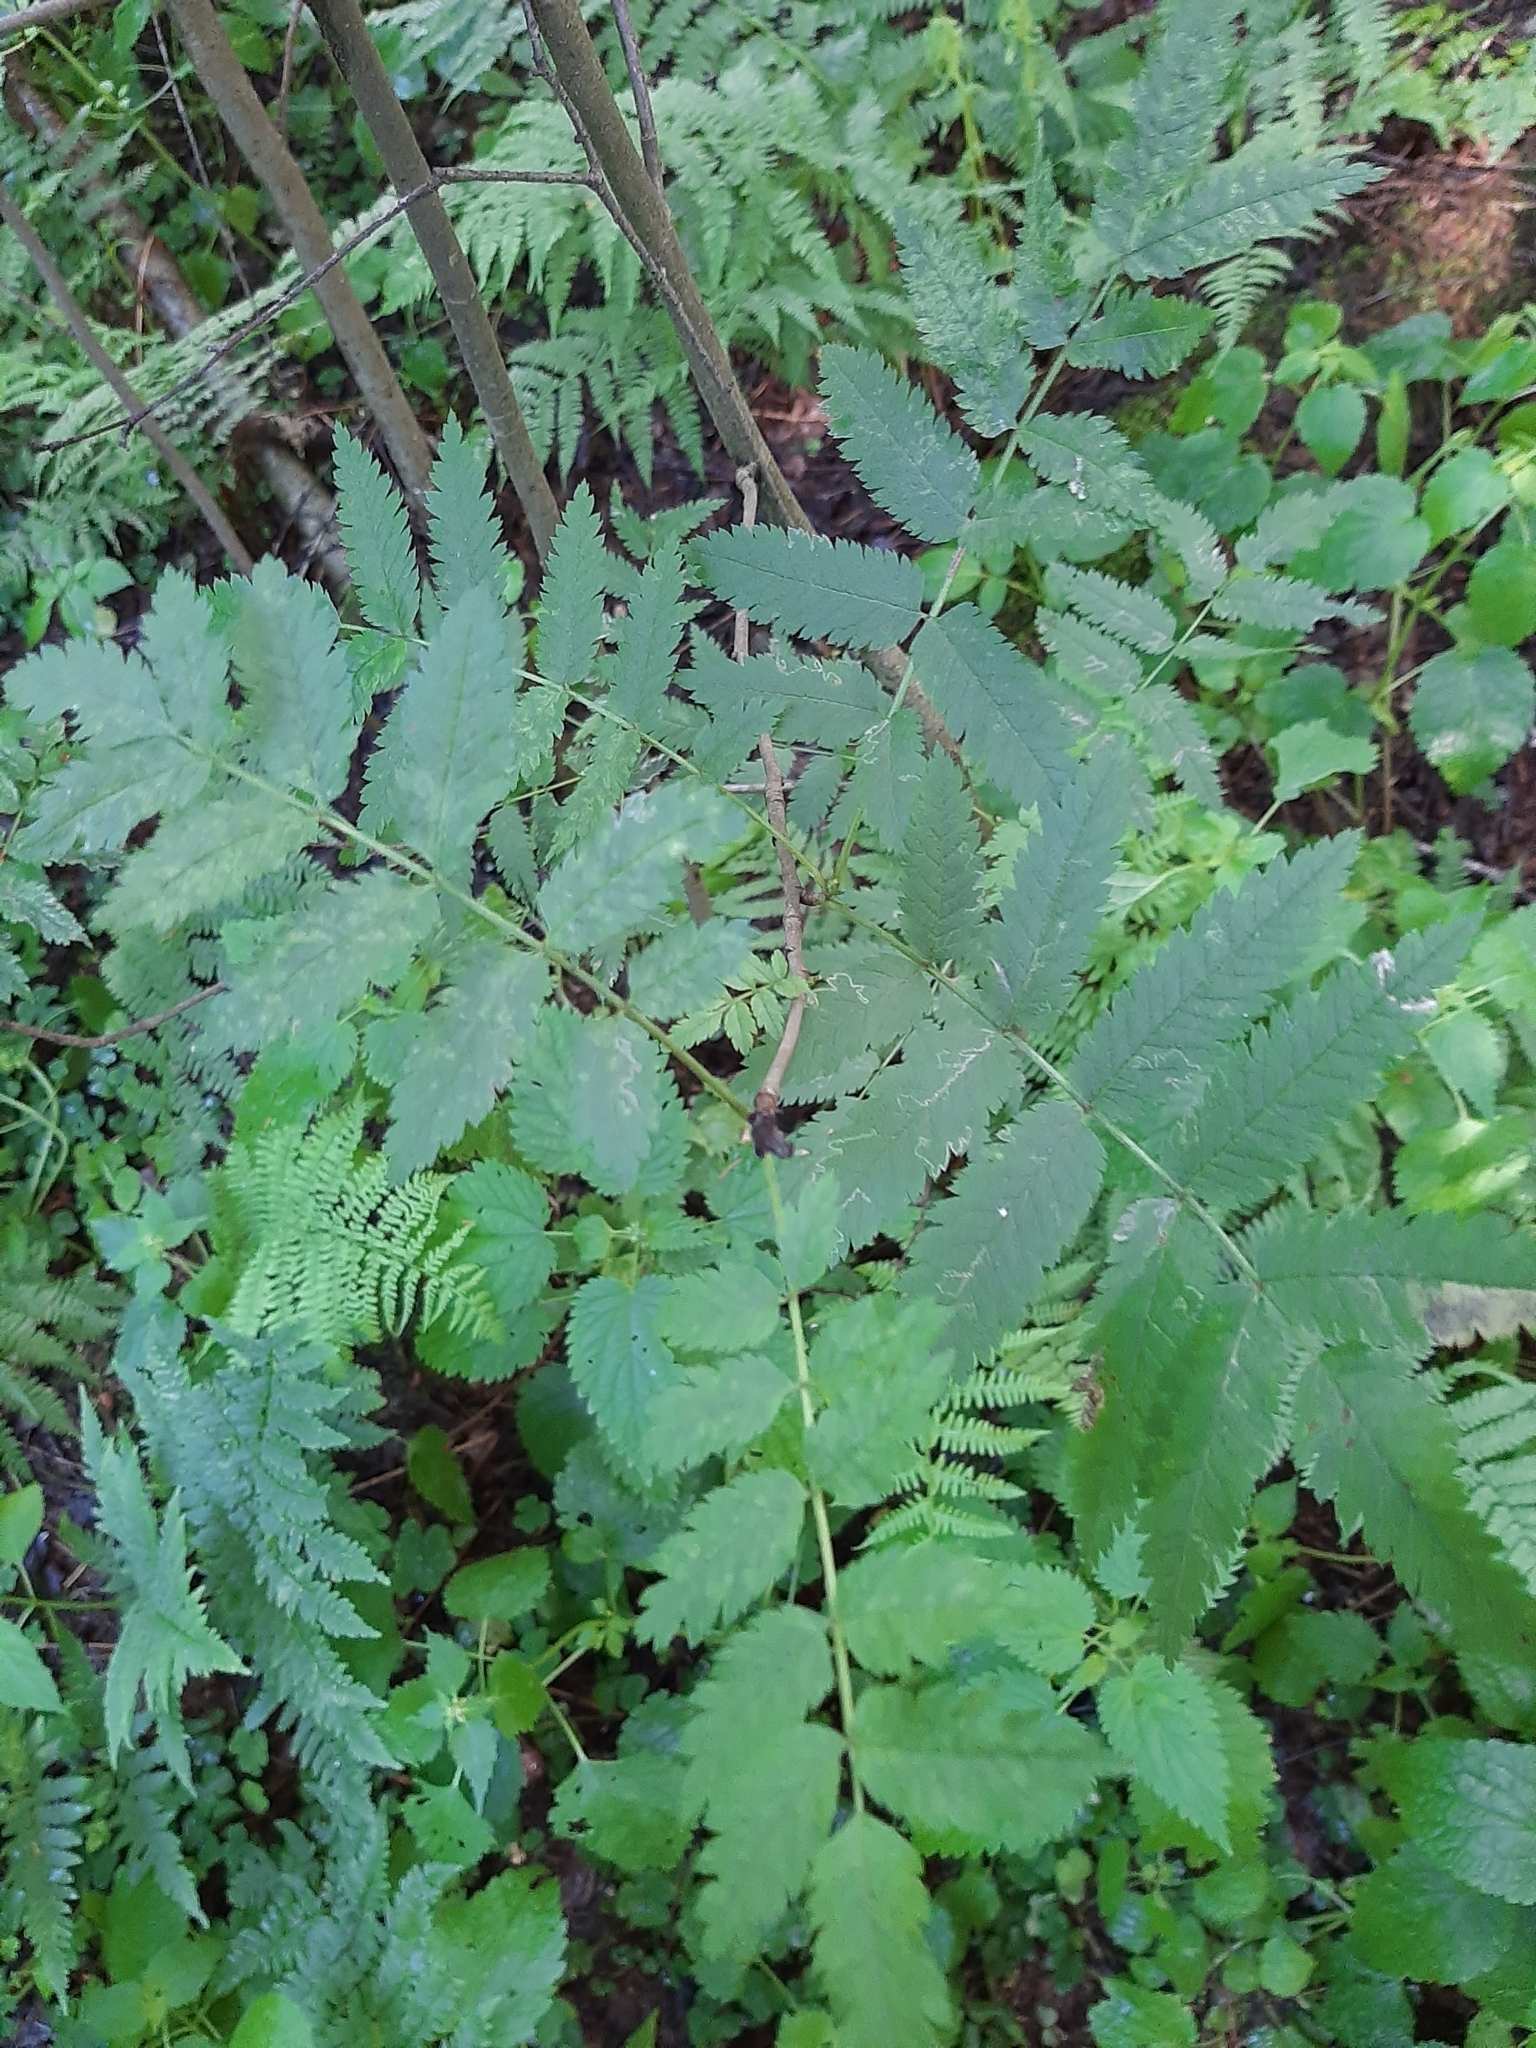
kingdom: Plantae
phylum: Tracheophyta
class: Magnoliopsida
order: Rosales
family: Rosaceae
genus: Sorbus
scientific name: Sorbus aucuparia
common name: Rowan
